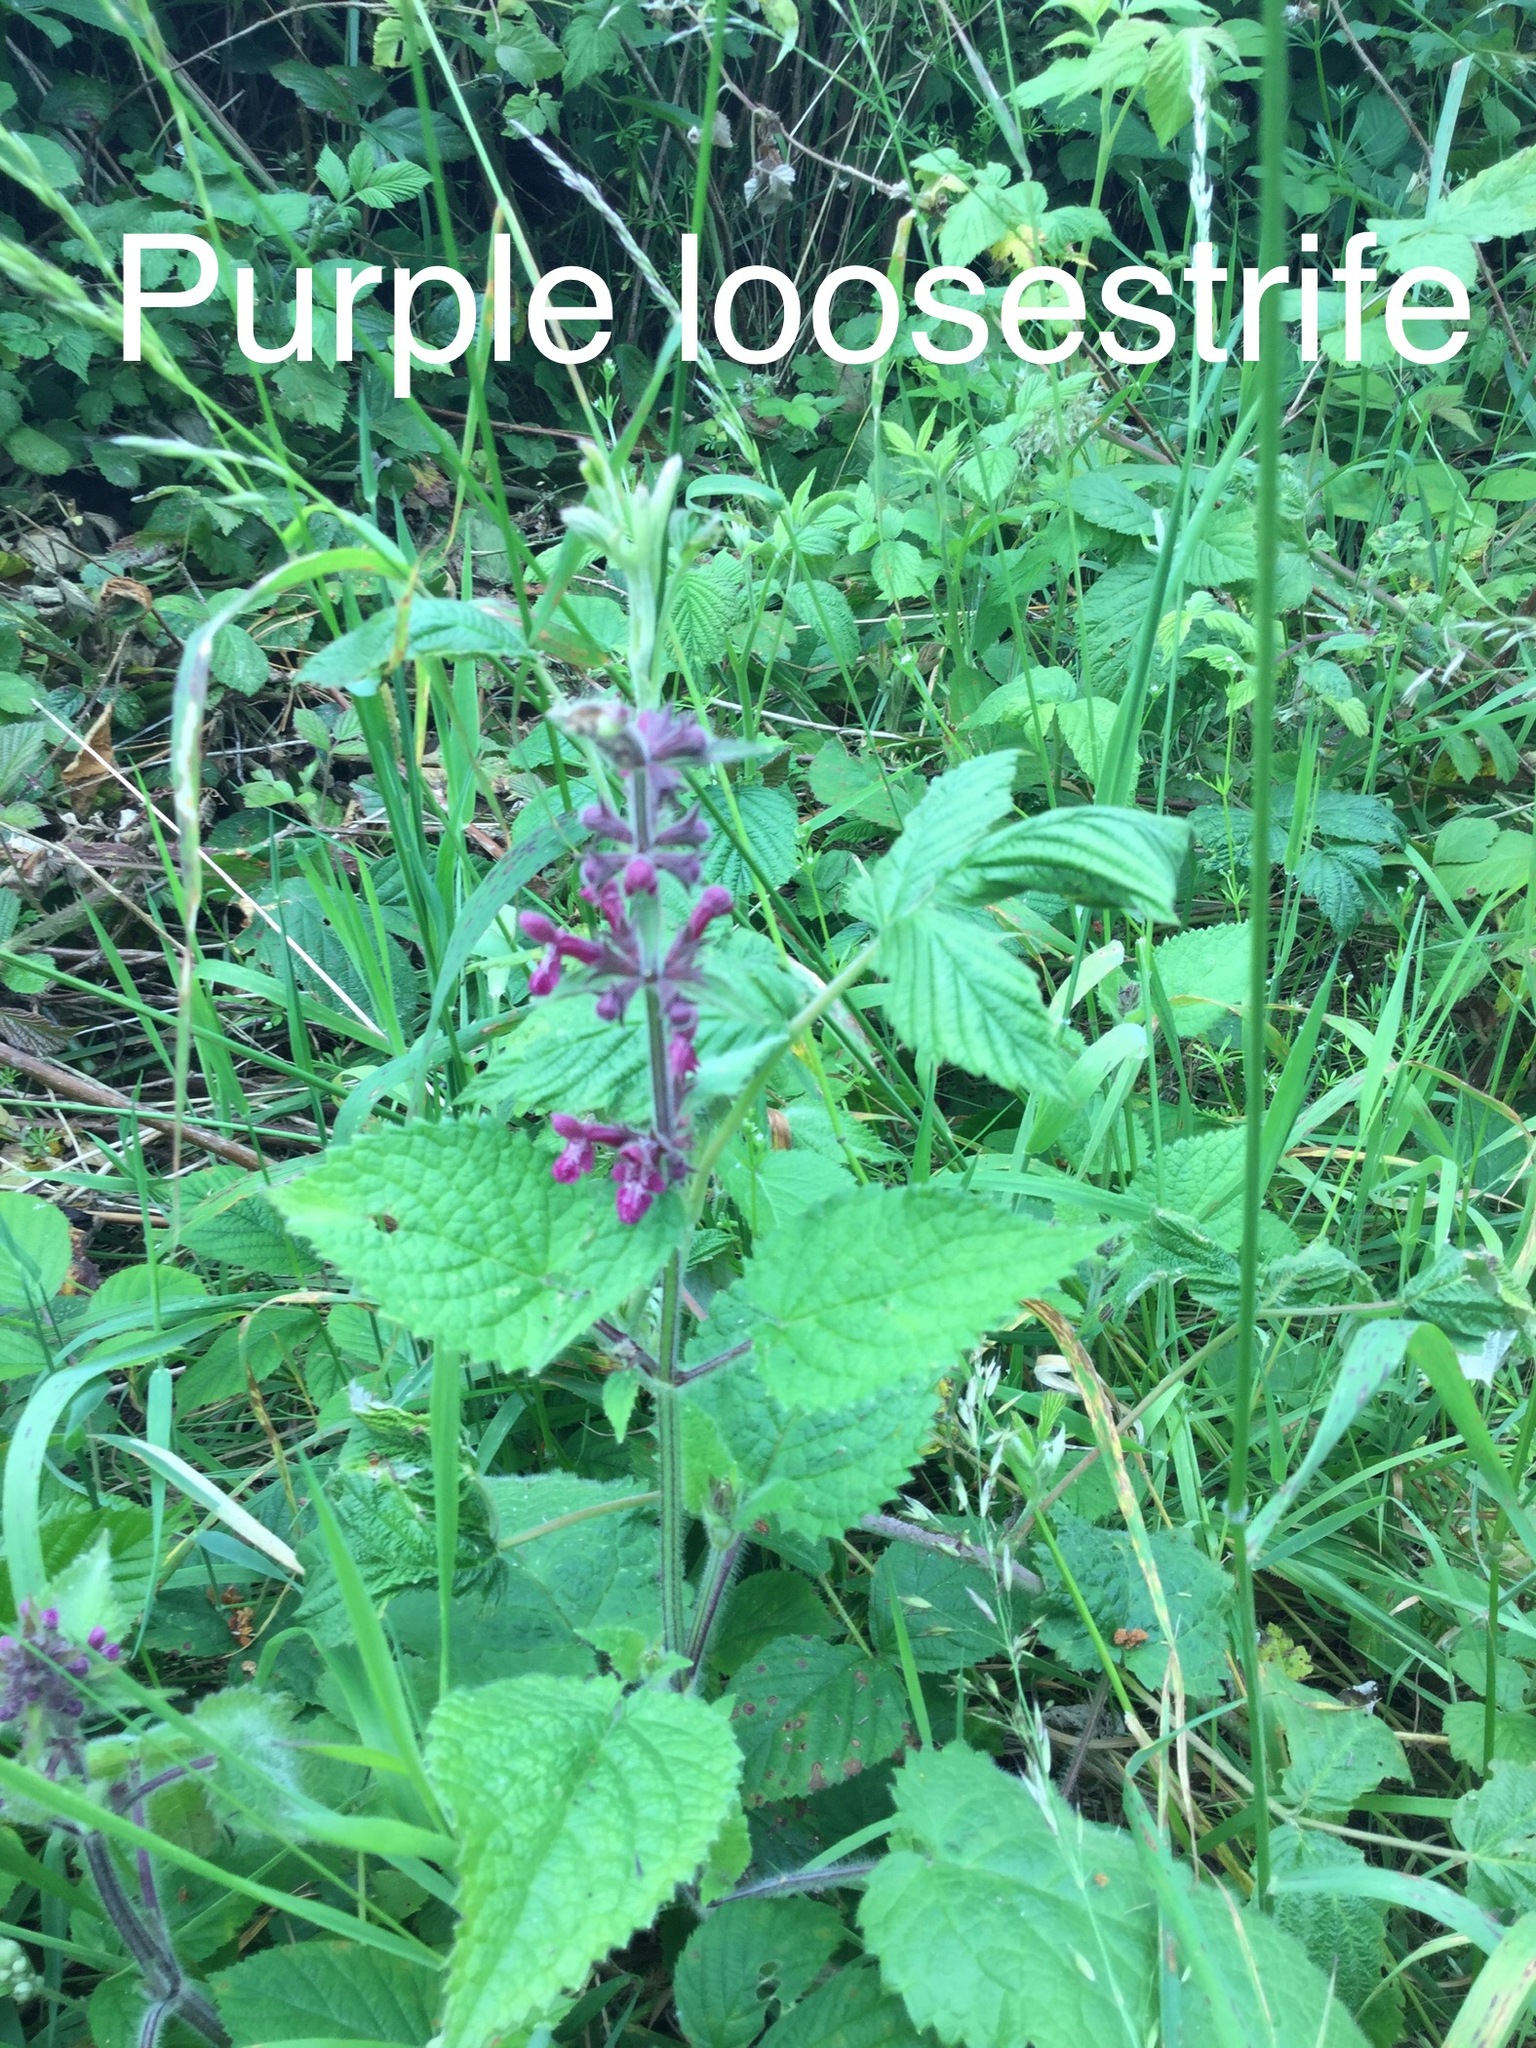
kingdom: Plantae
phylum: Tracheophyta
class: Magnoliopsida
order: Lamiales
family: Lamiaceae
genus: Stachys
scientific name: Stachys sylvatica
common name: Hedge woundwort
